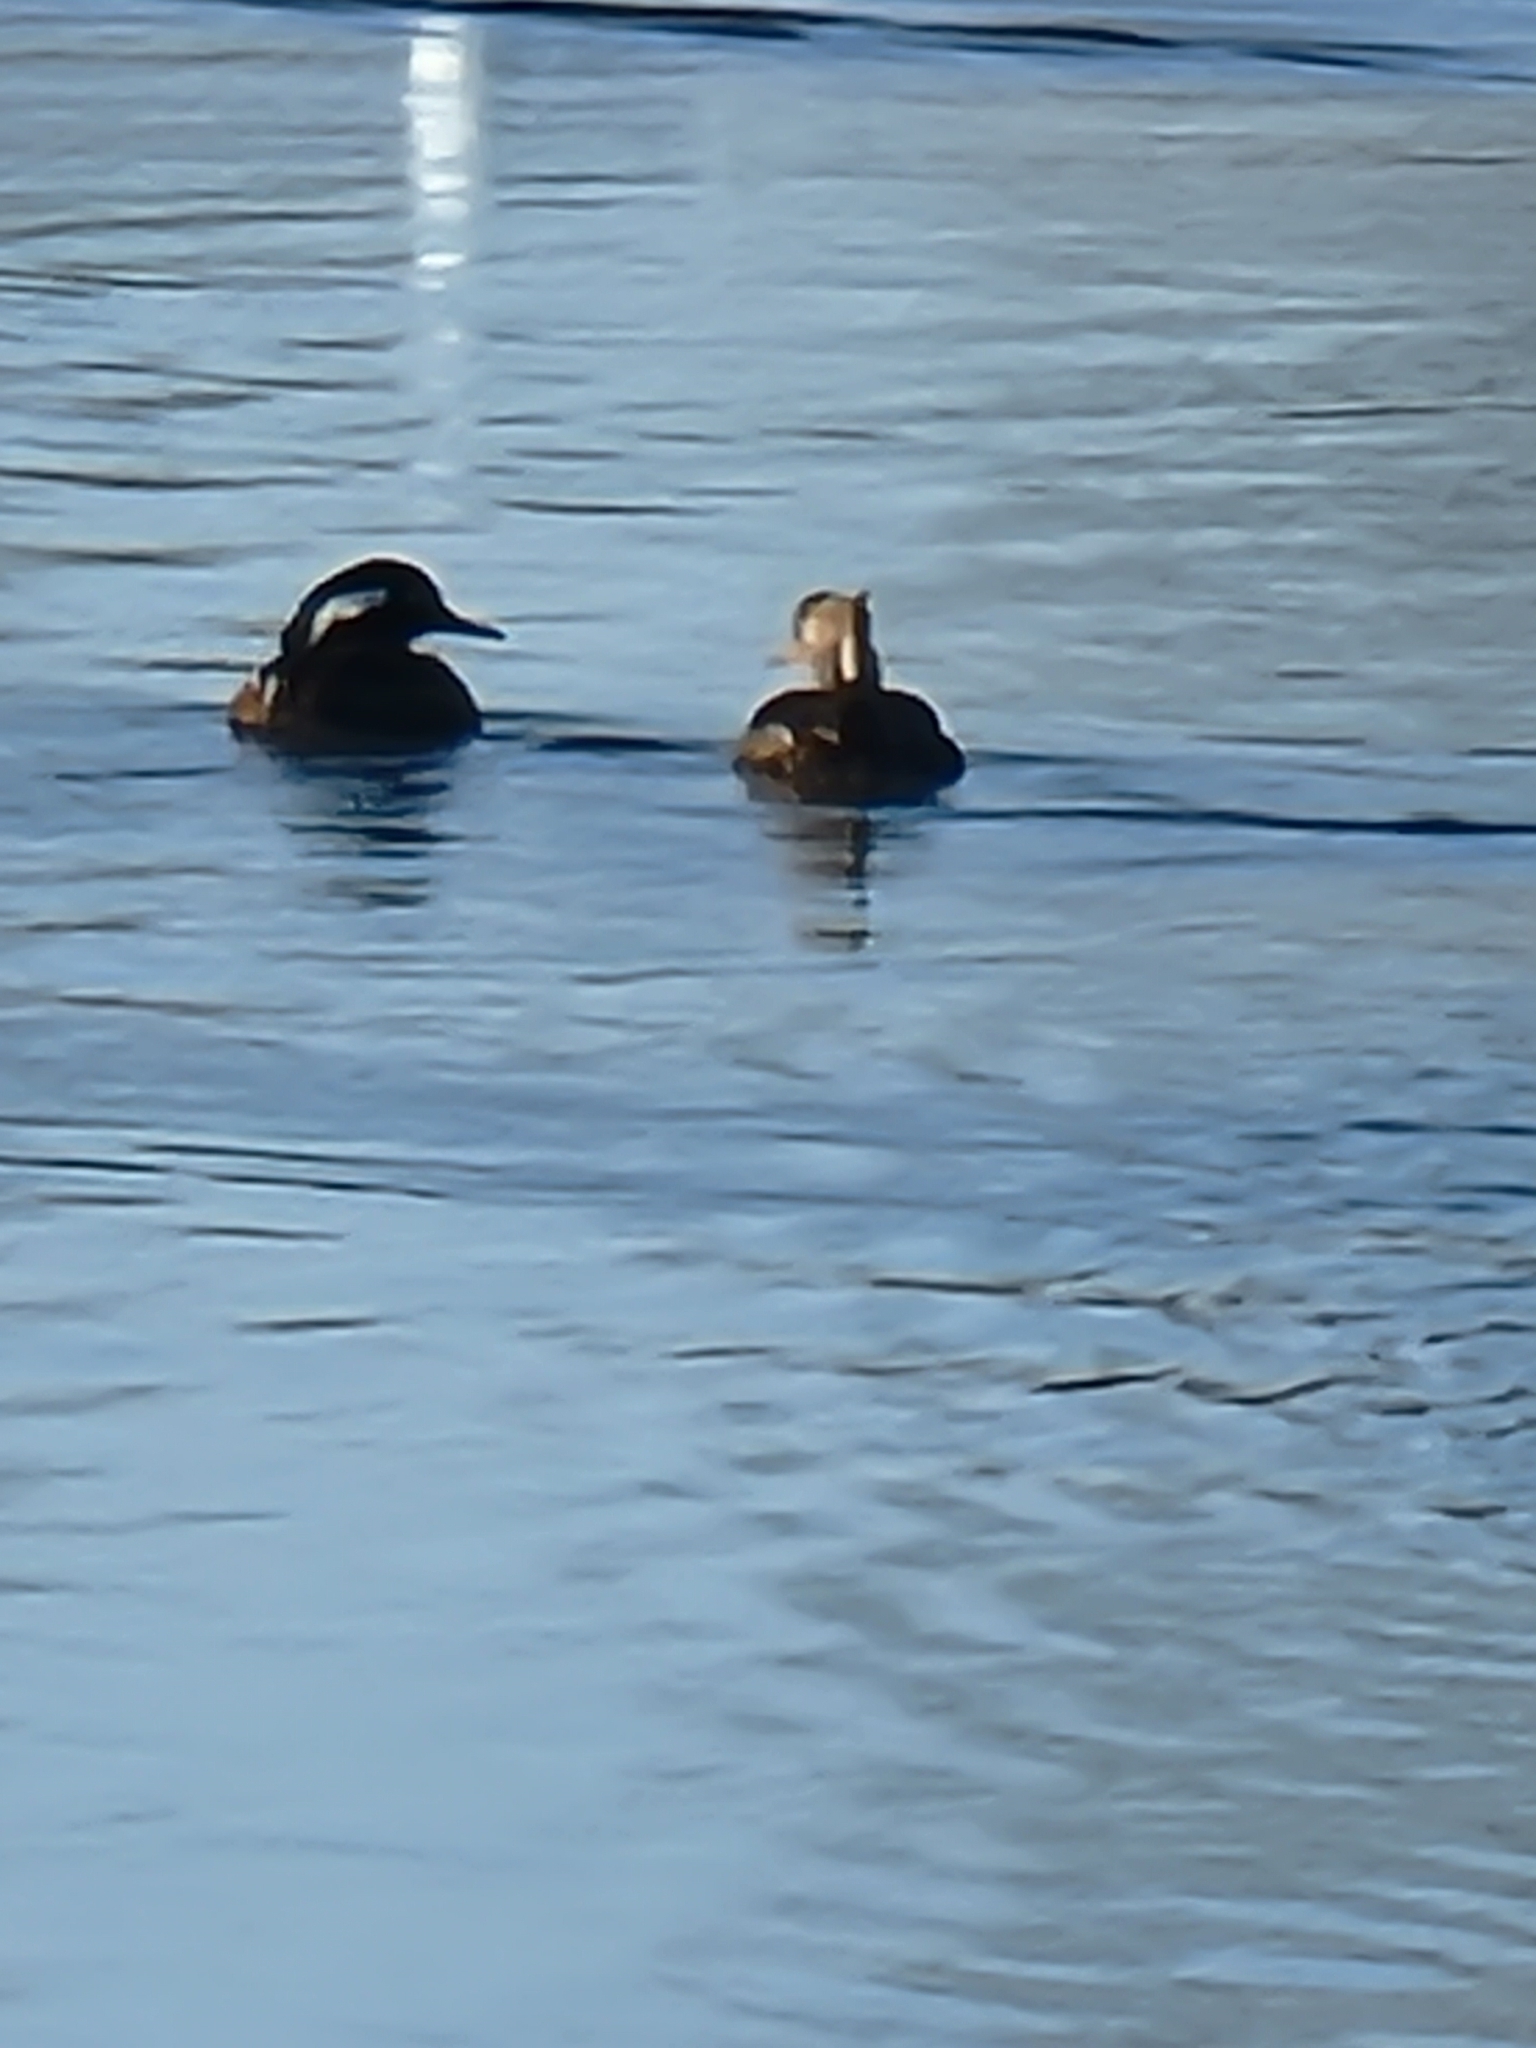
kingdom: Animalia
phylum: Chordata
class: Aves
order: Anseriformes
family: Anatidae
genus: Lophodytes
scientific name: Lophodytes cucullatus
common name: Hooded merganser
